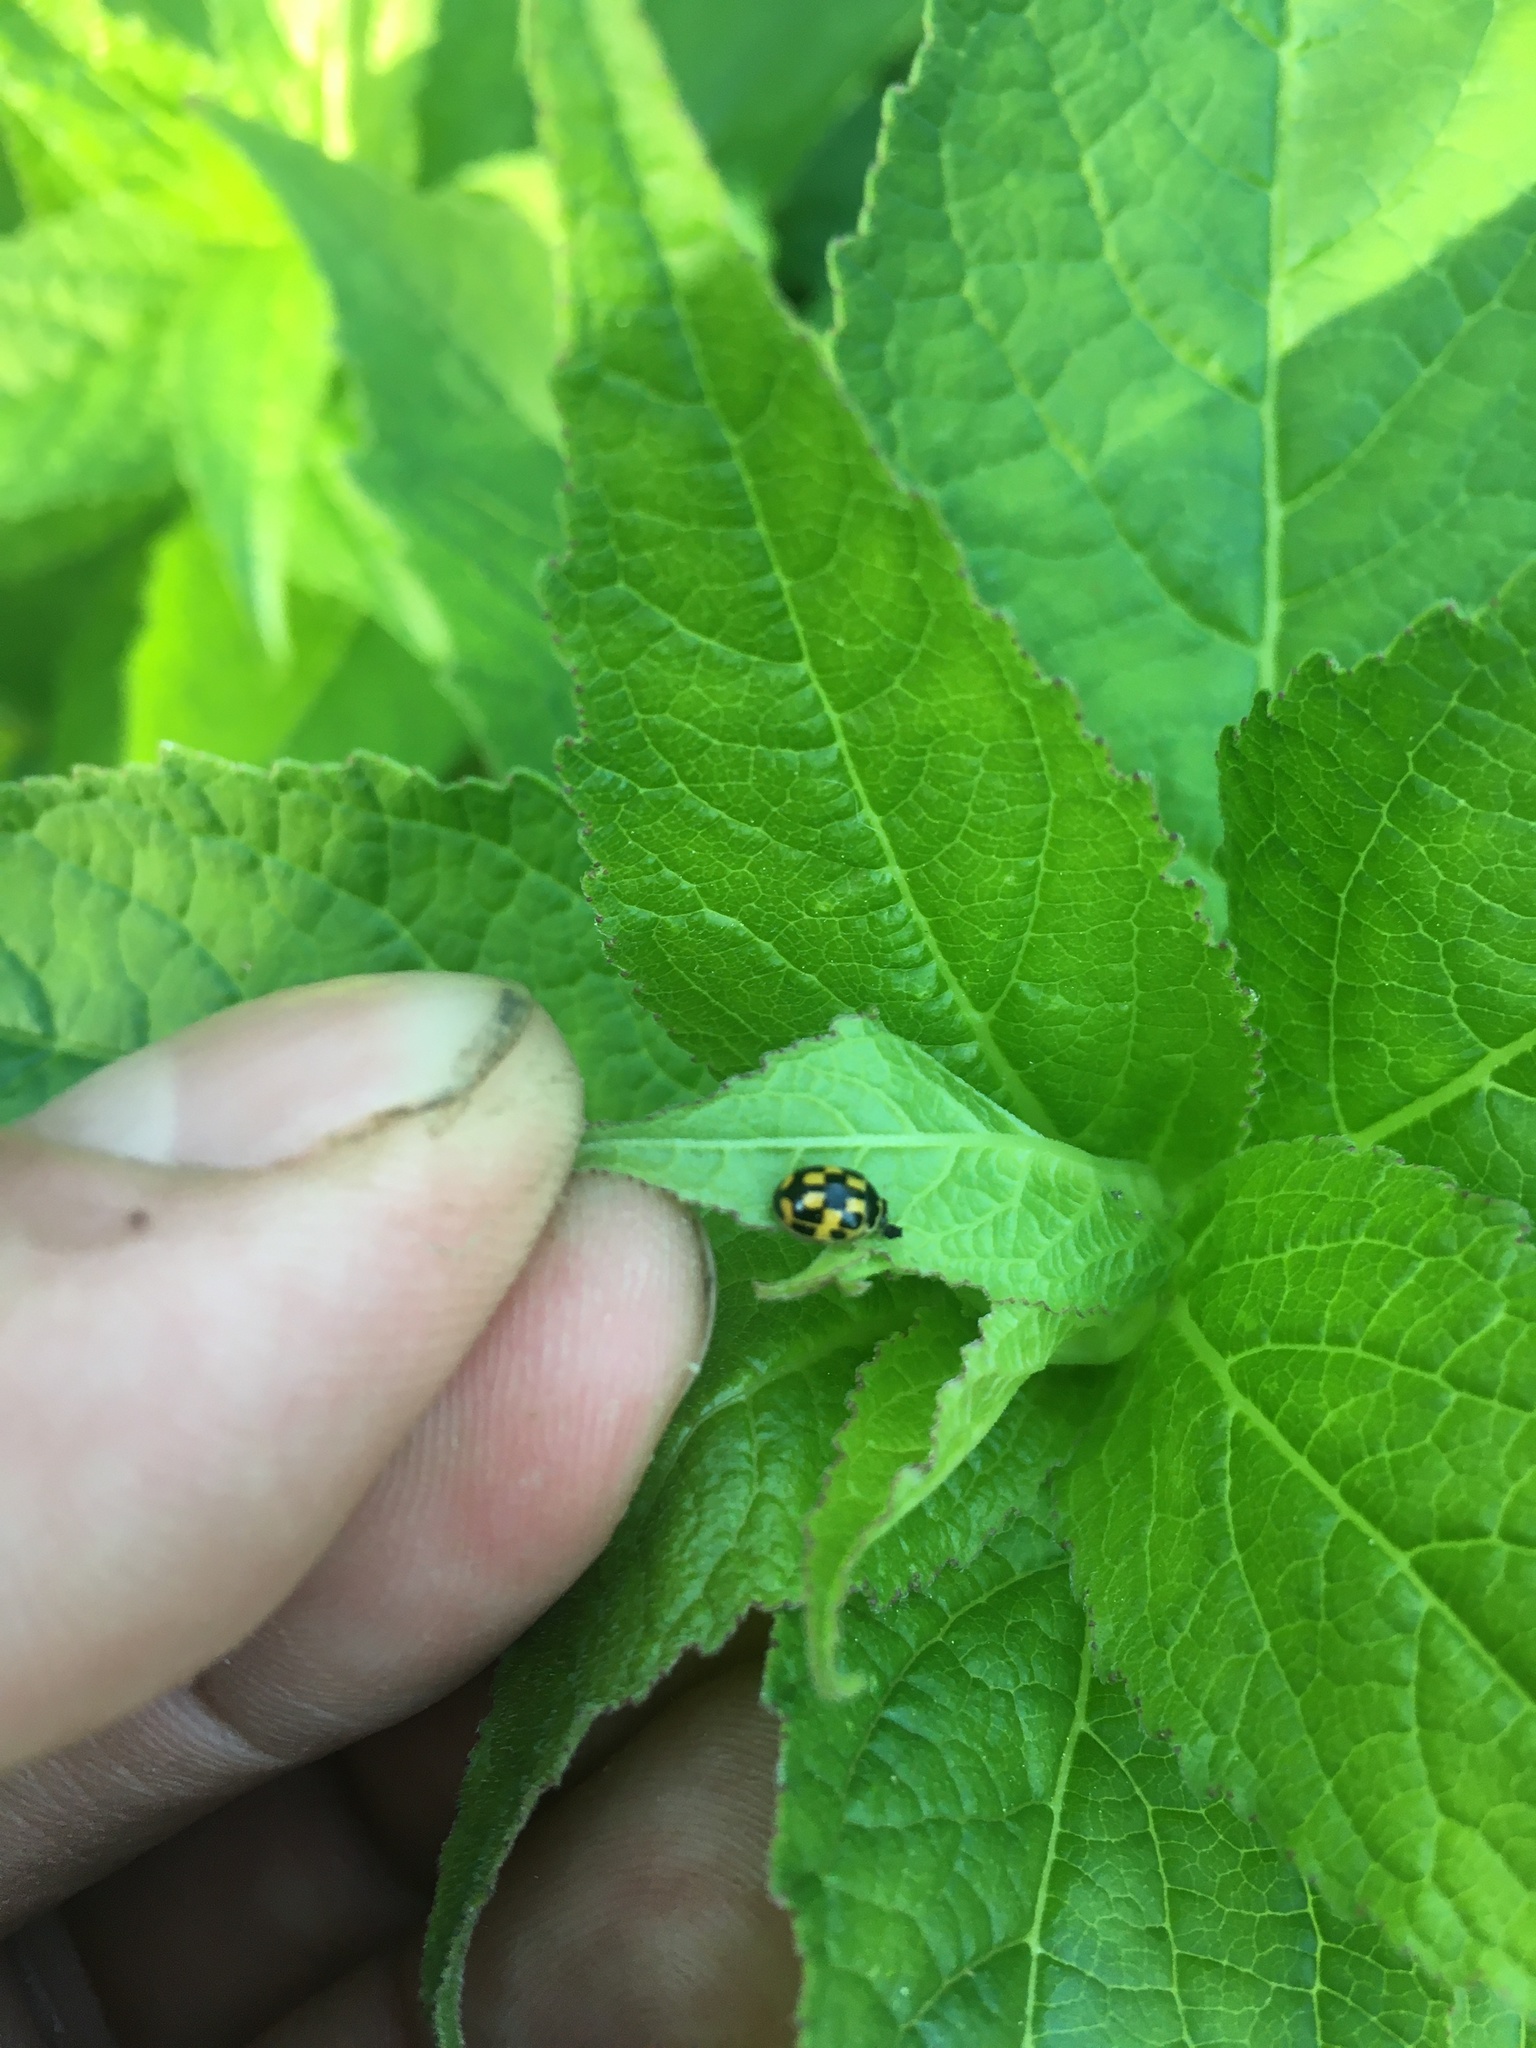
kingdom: Animalia
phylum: Arthropoda
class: Insecta
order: Coleoptera
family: Coccinellidae
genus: Propylaea
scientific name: Propylaea quatuordecimpunctata
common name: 14-spotted ladybird beetle
